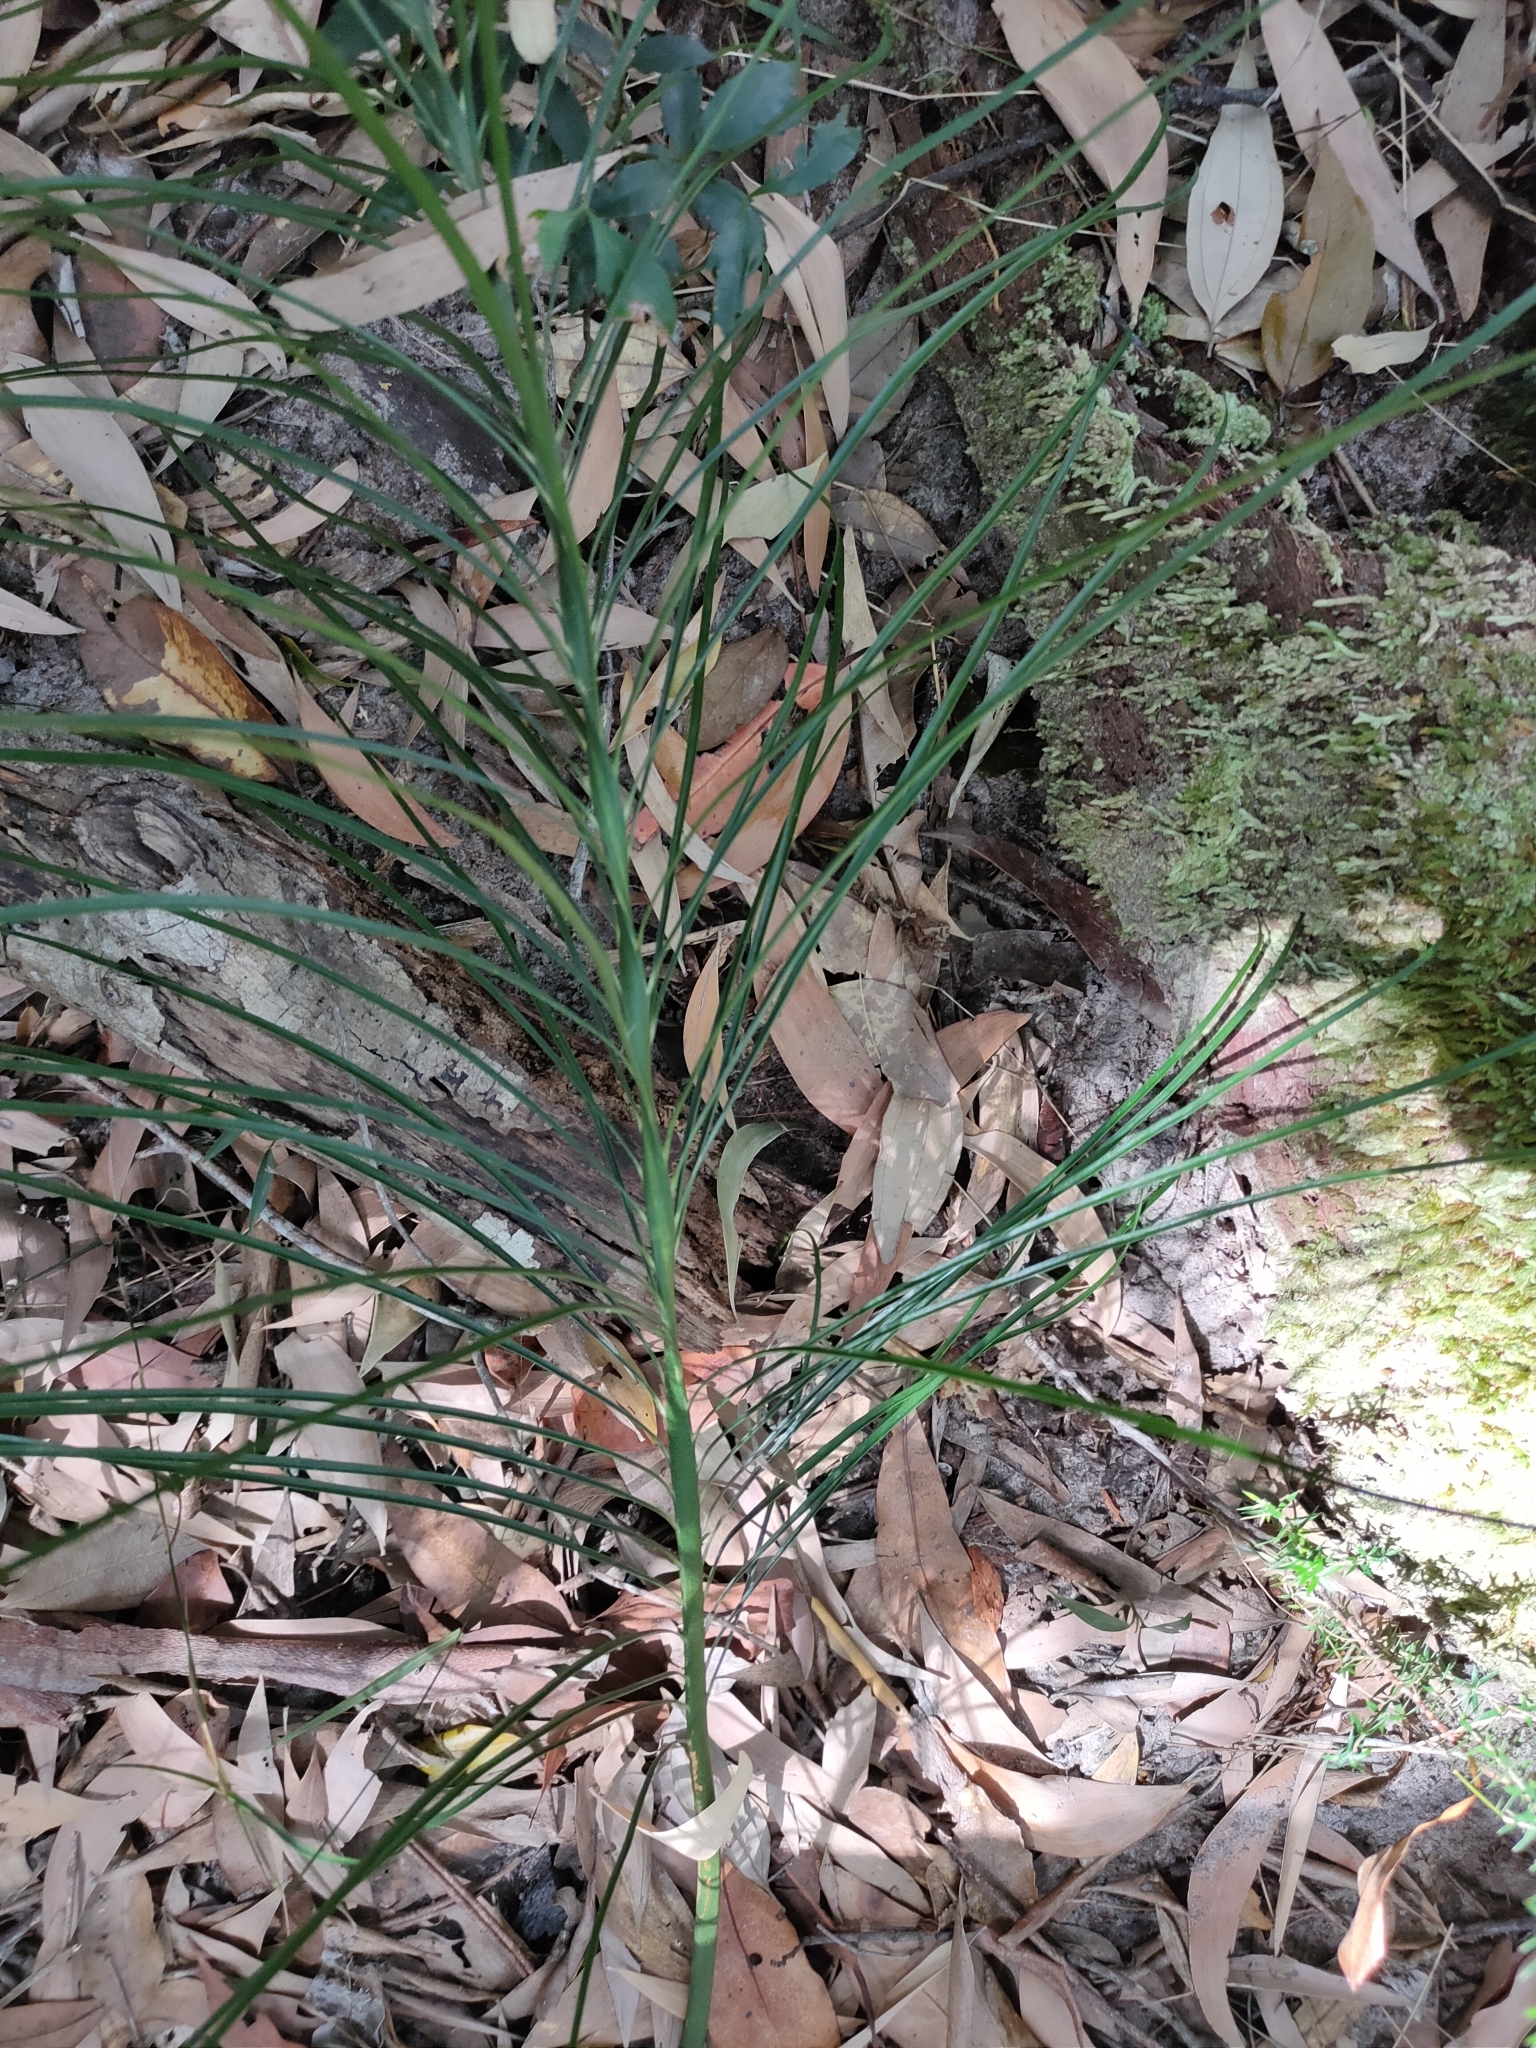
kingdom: Plantae
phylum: Tracheophyta
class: Cycadopsida
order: Cycadales
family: Zamiaceae
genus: Macrozamia
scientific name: Macrozamia pauli-guilielmi
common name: Pineapple zamia
